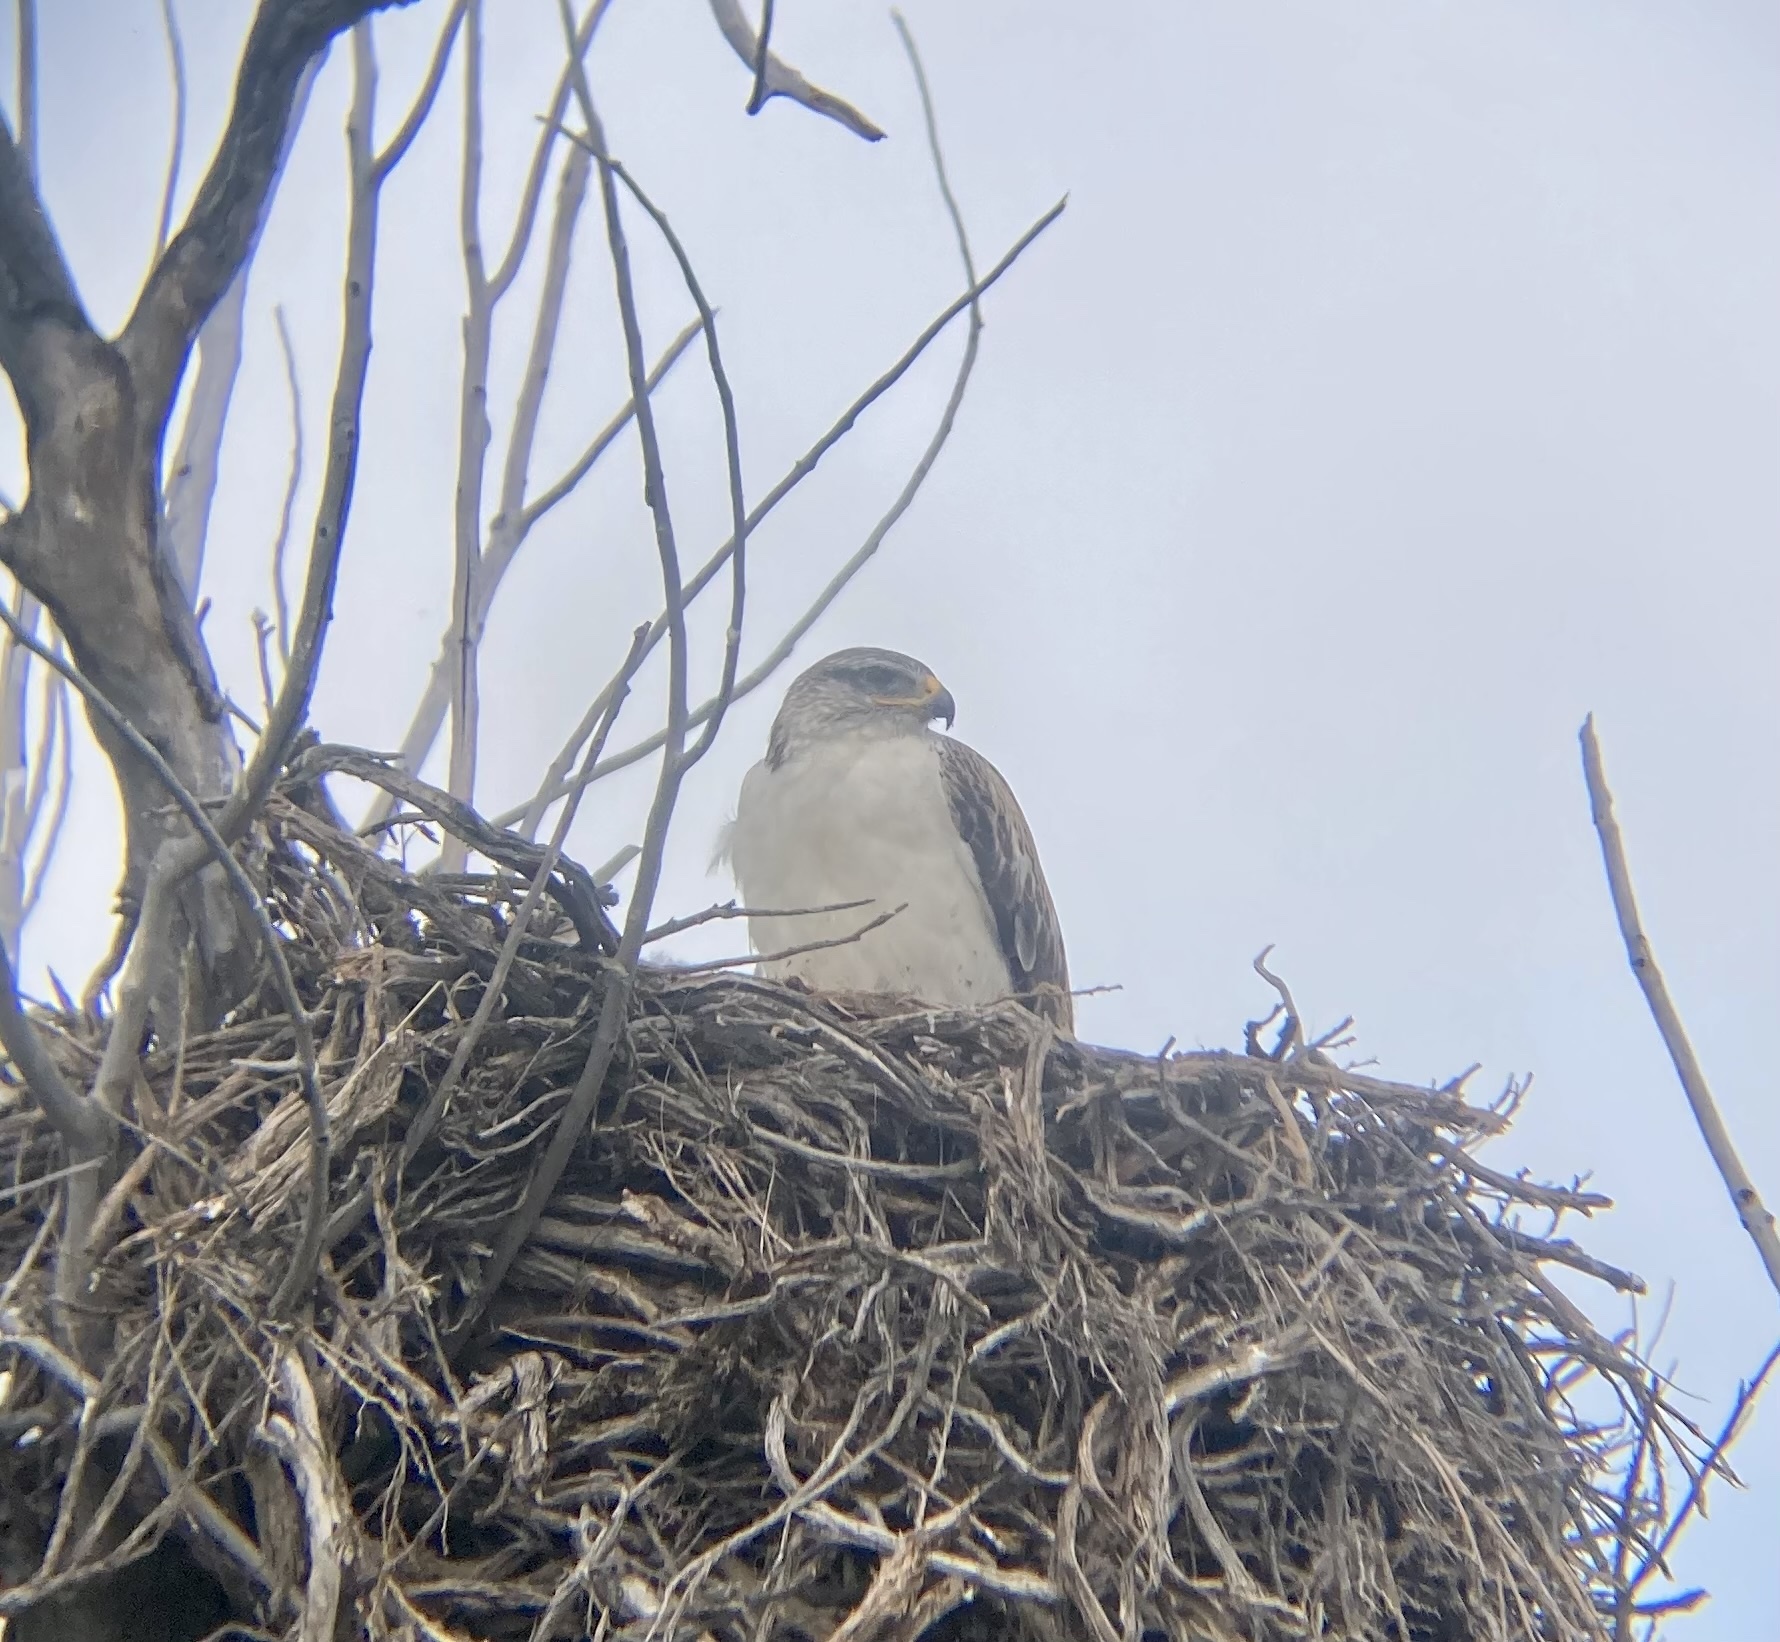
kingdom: Animalia
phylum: Chordata
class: Aves
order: Accipitriformes
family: Accipitridae
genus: Buteo
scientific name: Buteo regalis
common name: Ferruginous hawk
